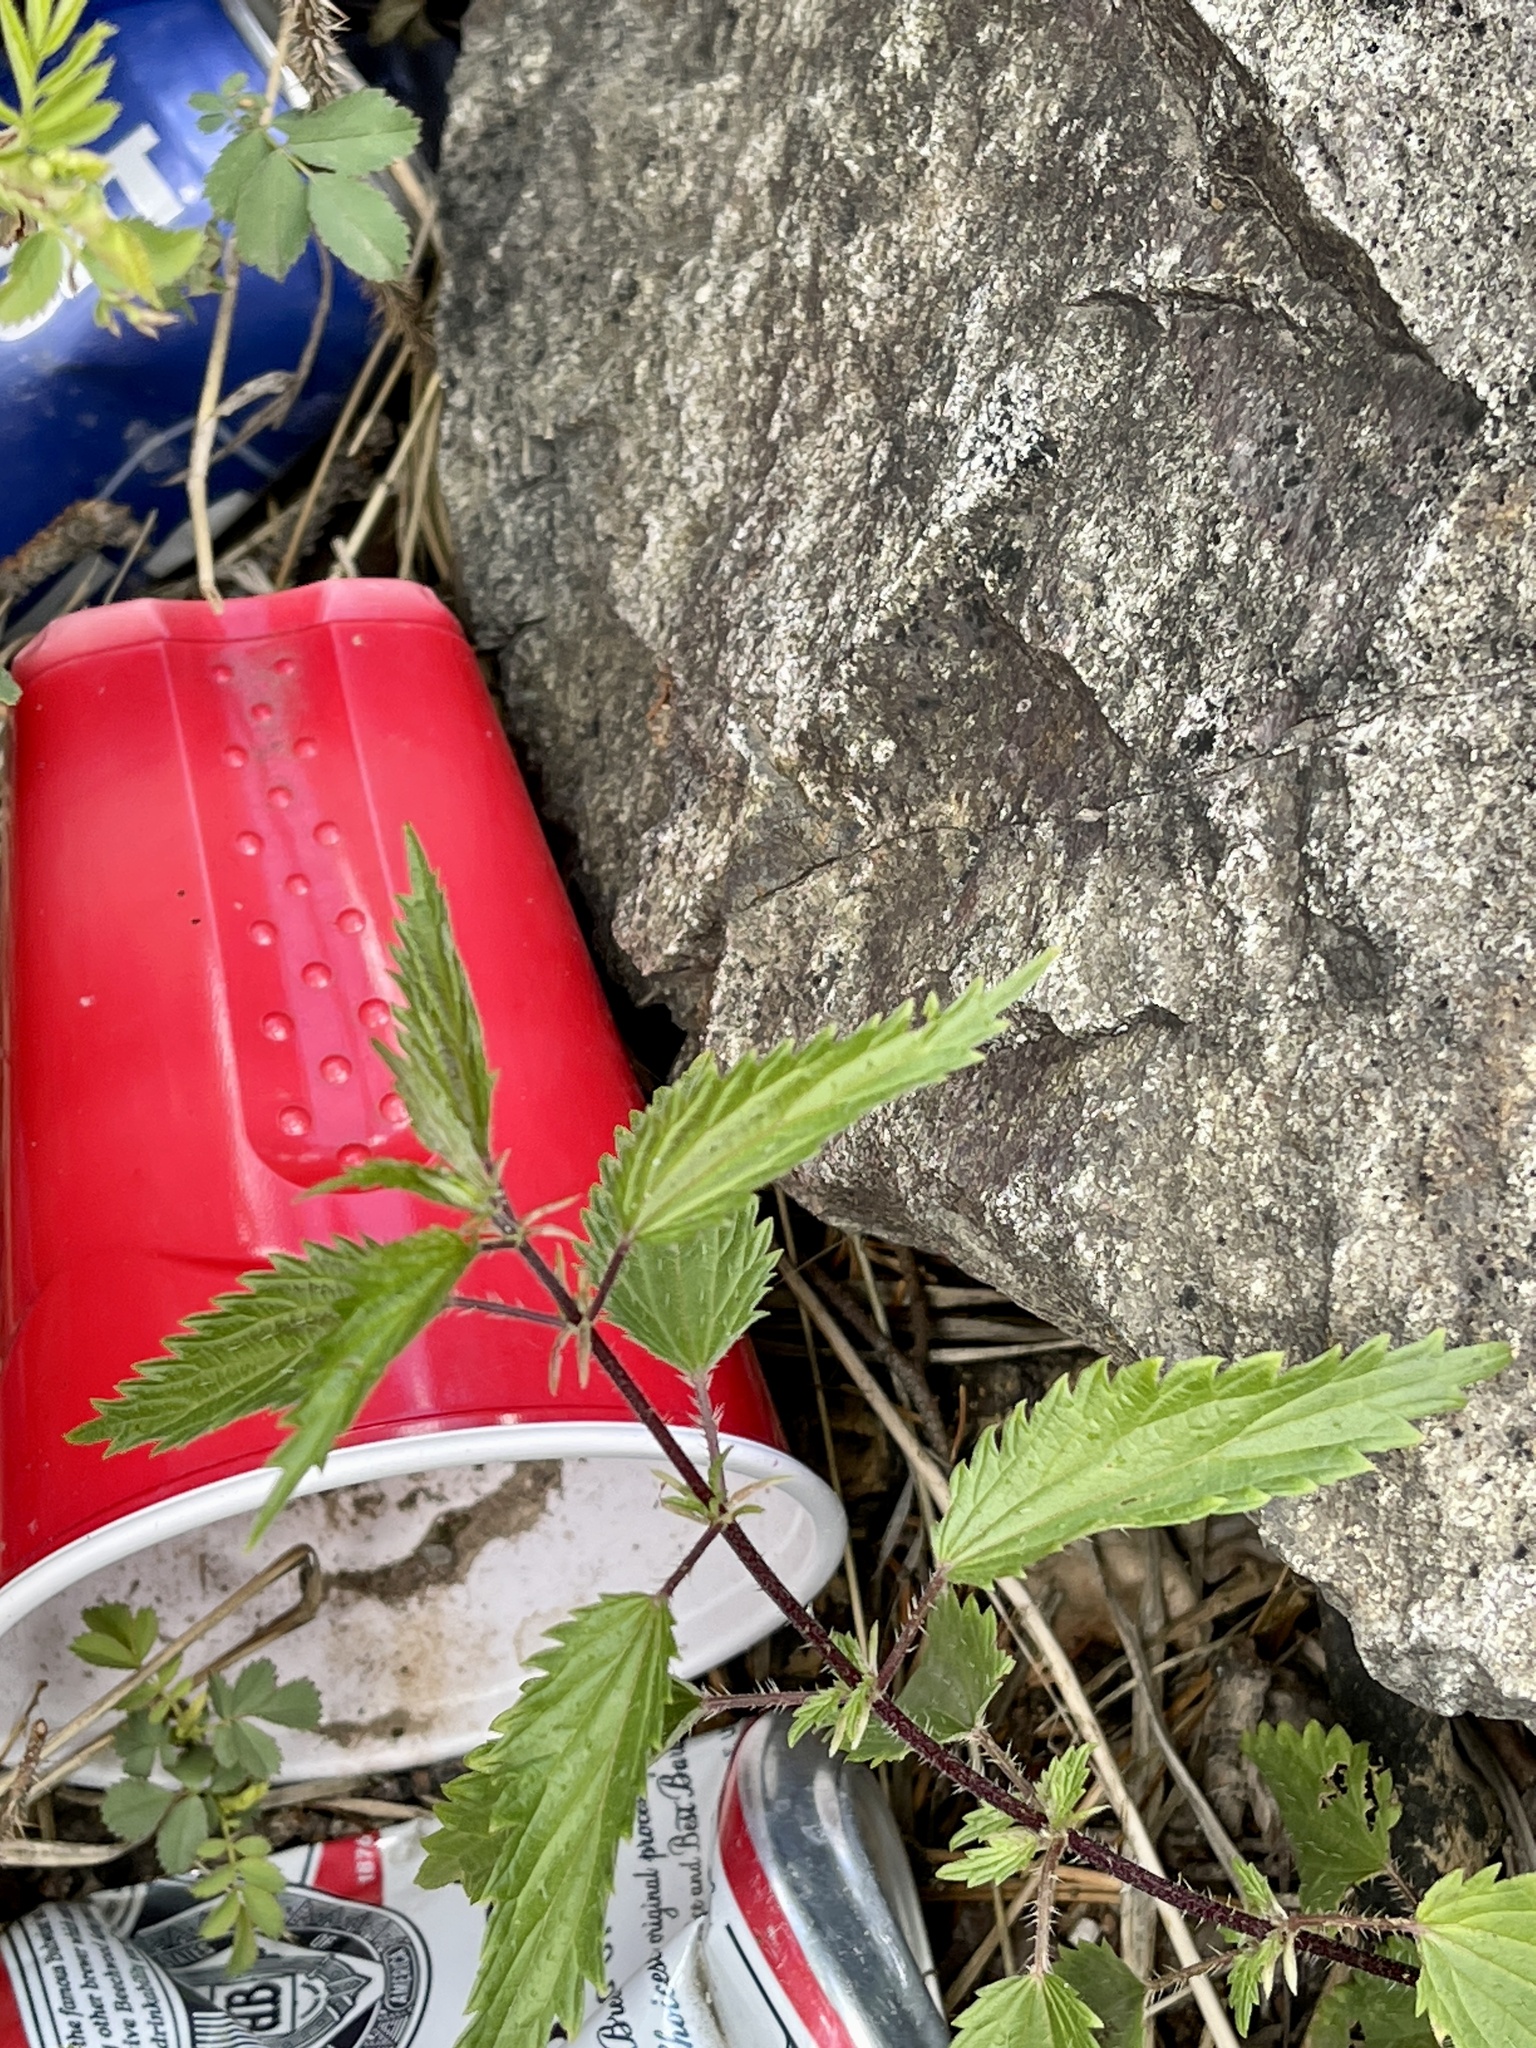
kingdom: Plantae
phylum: Tracheophyta
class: Magnoliopsida
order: Rosales
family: Urticaceae
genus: Urtica
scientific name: Urtica gracilis
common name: Slender stinging nettle
